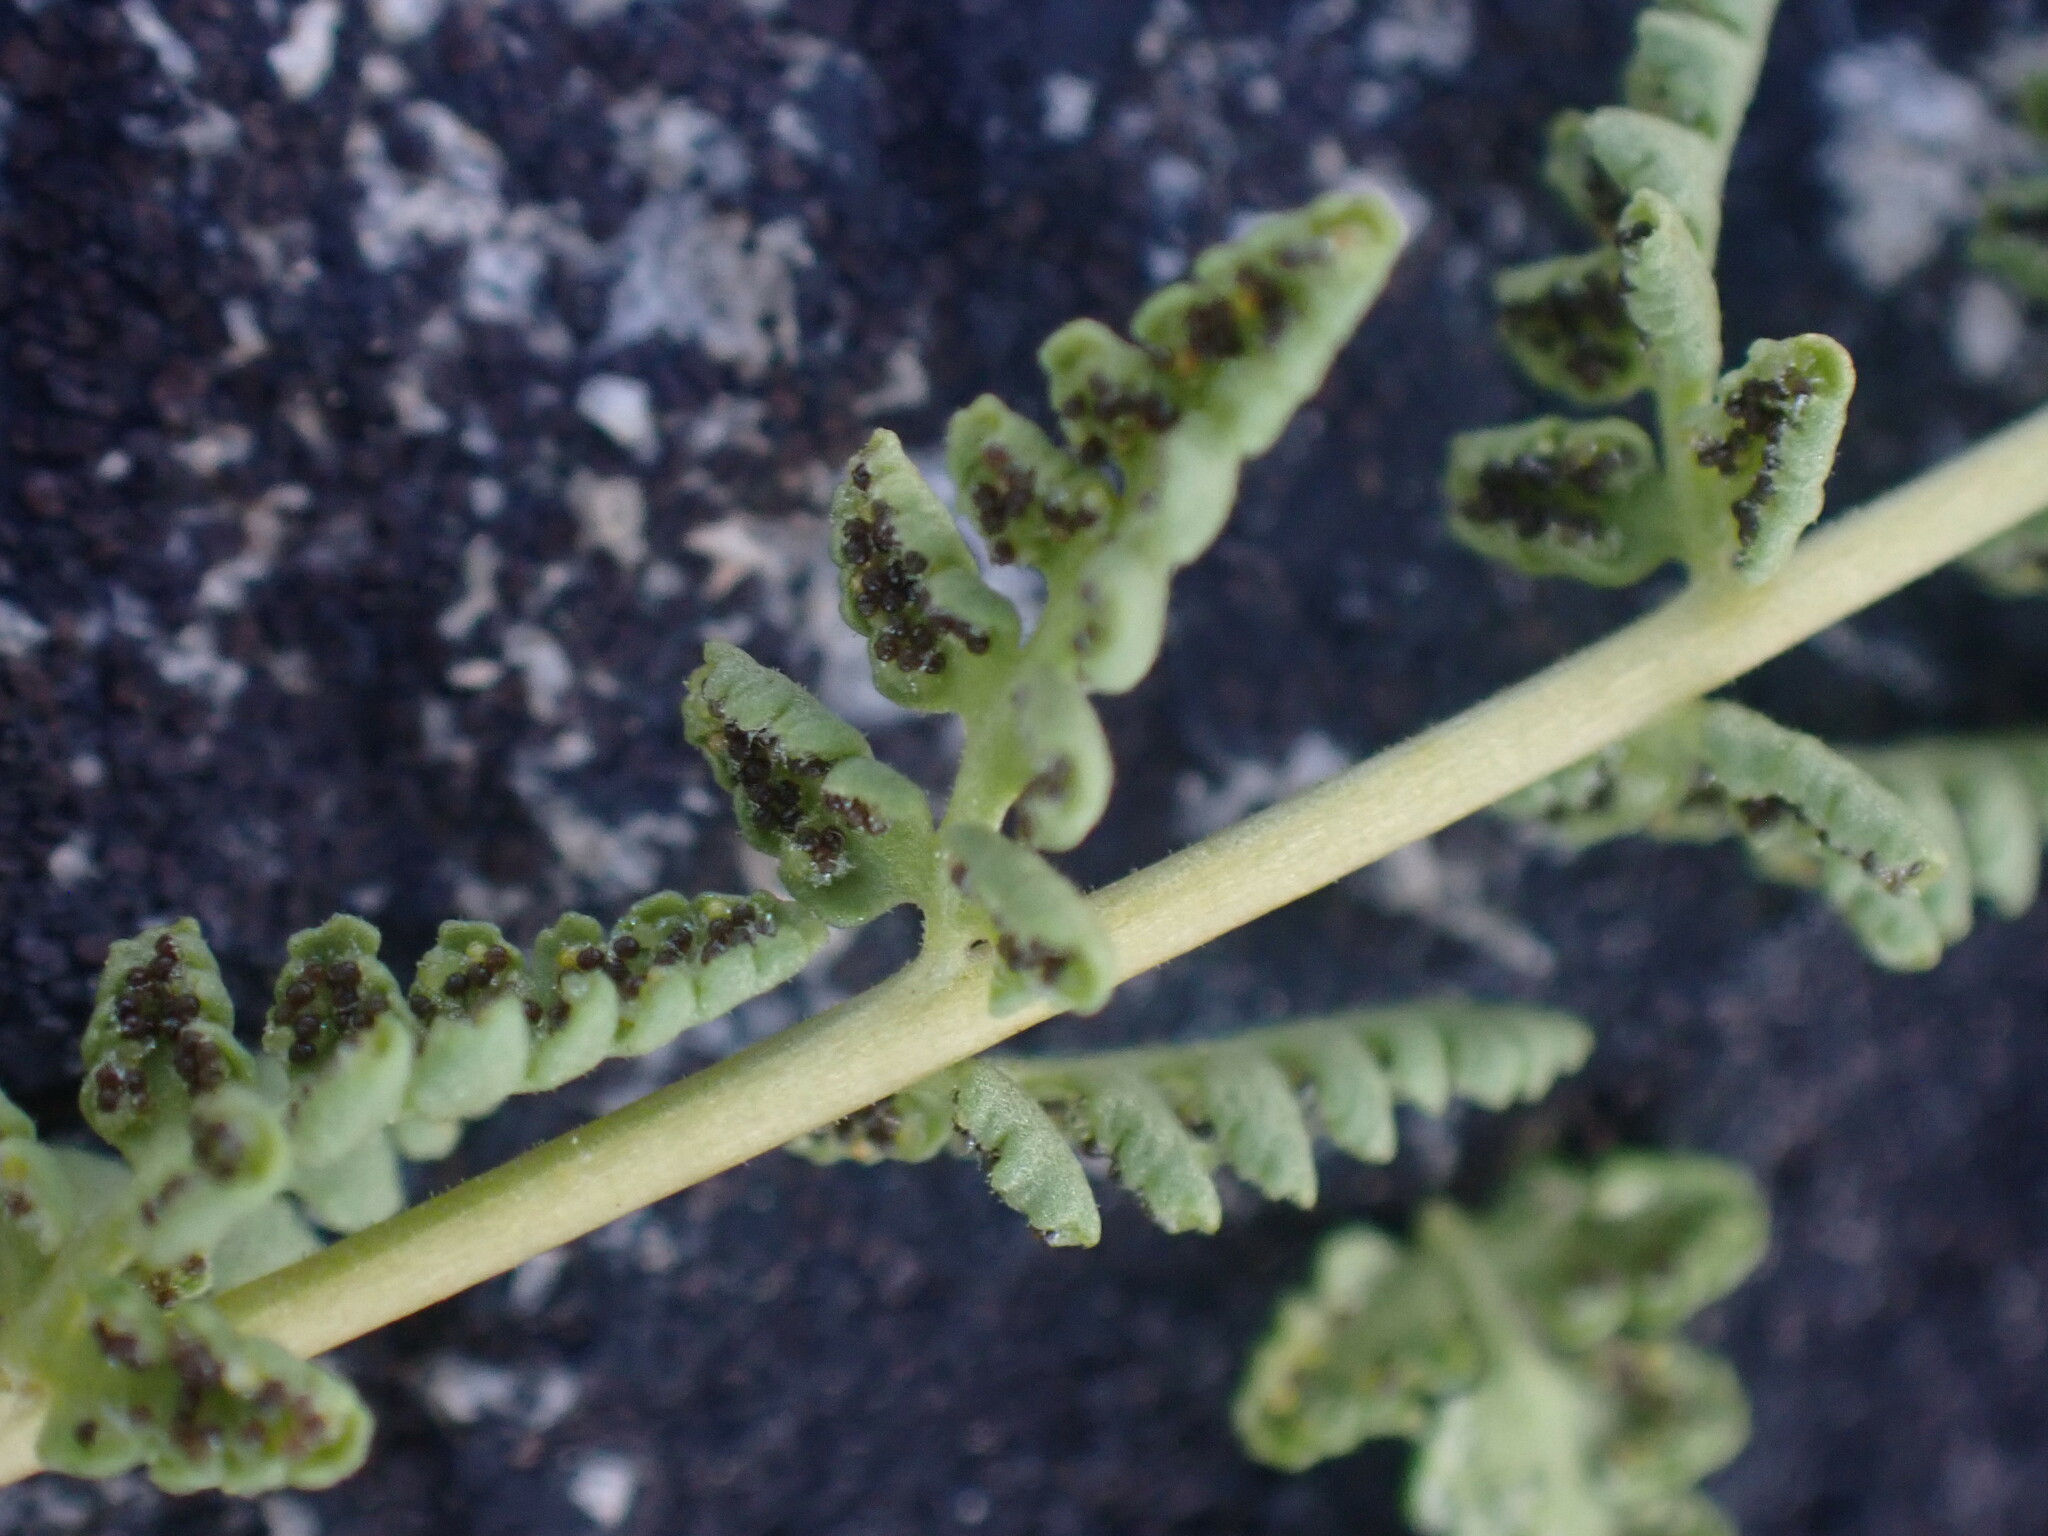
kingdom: Plantae
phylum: Tracheophyta
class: Polypodiopsida
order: Polypodiales
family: Woodsiaceae
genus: Physematium
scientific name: Physematium oreganum
